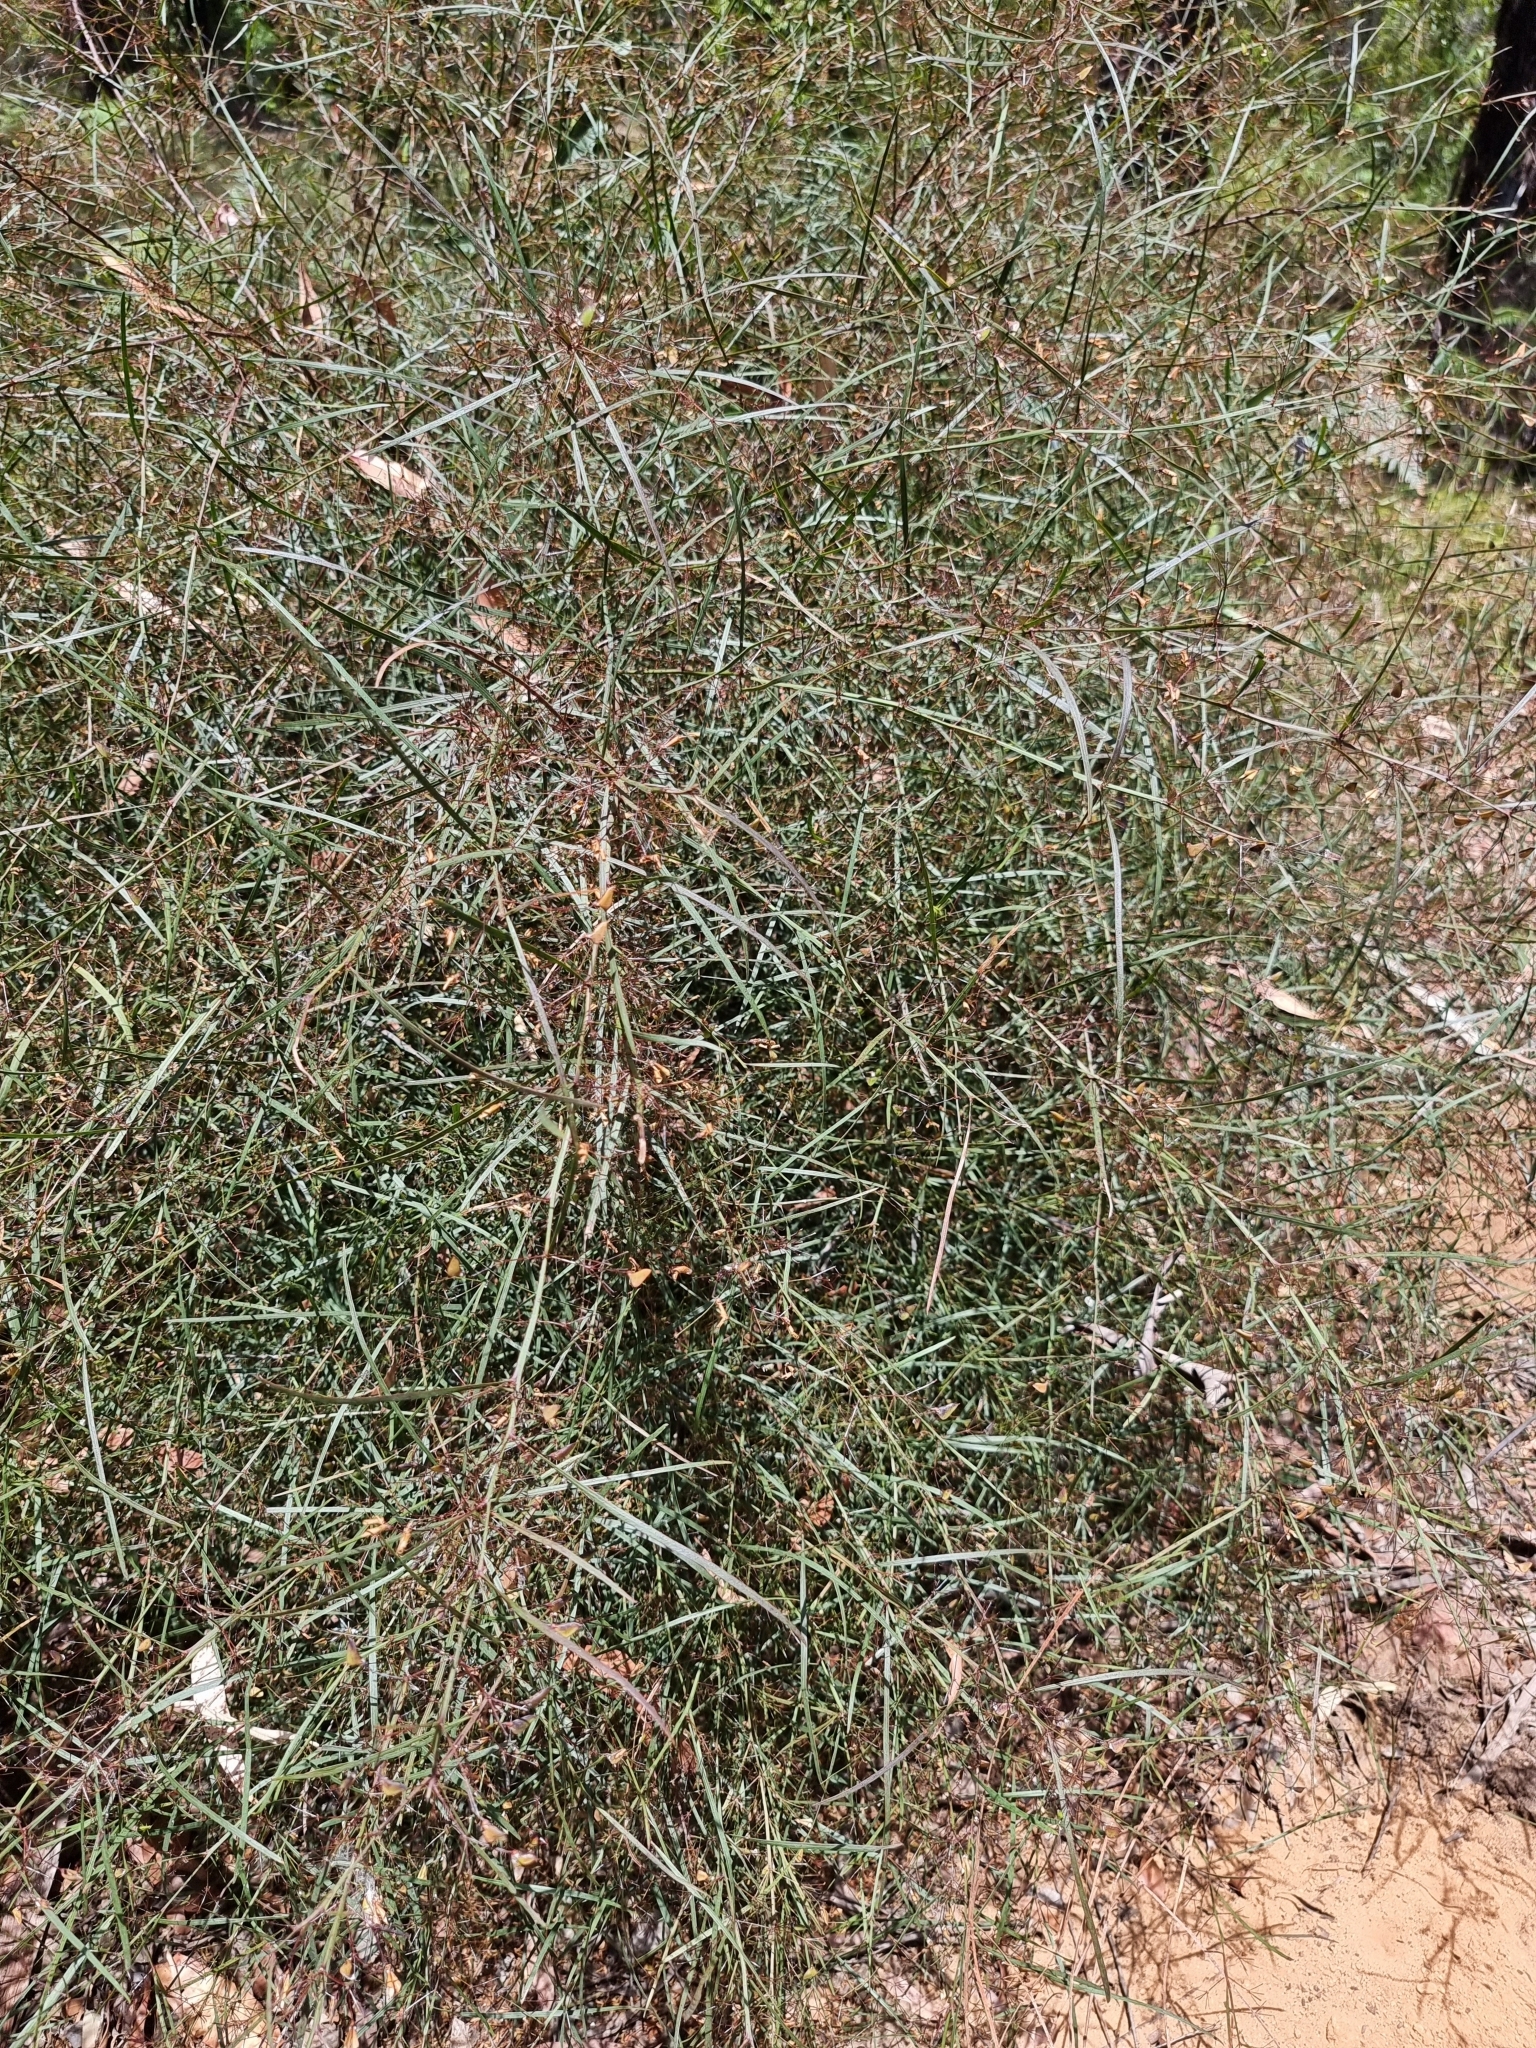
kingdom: Plantae
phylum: Tracheophyta
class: Magnoliopsida
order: Fabales
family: Fabaceae
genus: Daviesia
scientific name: Daviesia wyattiana
